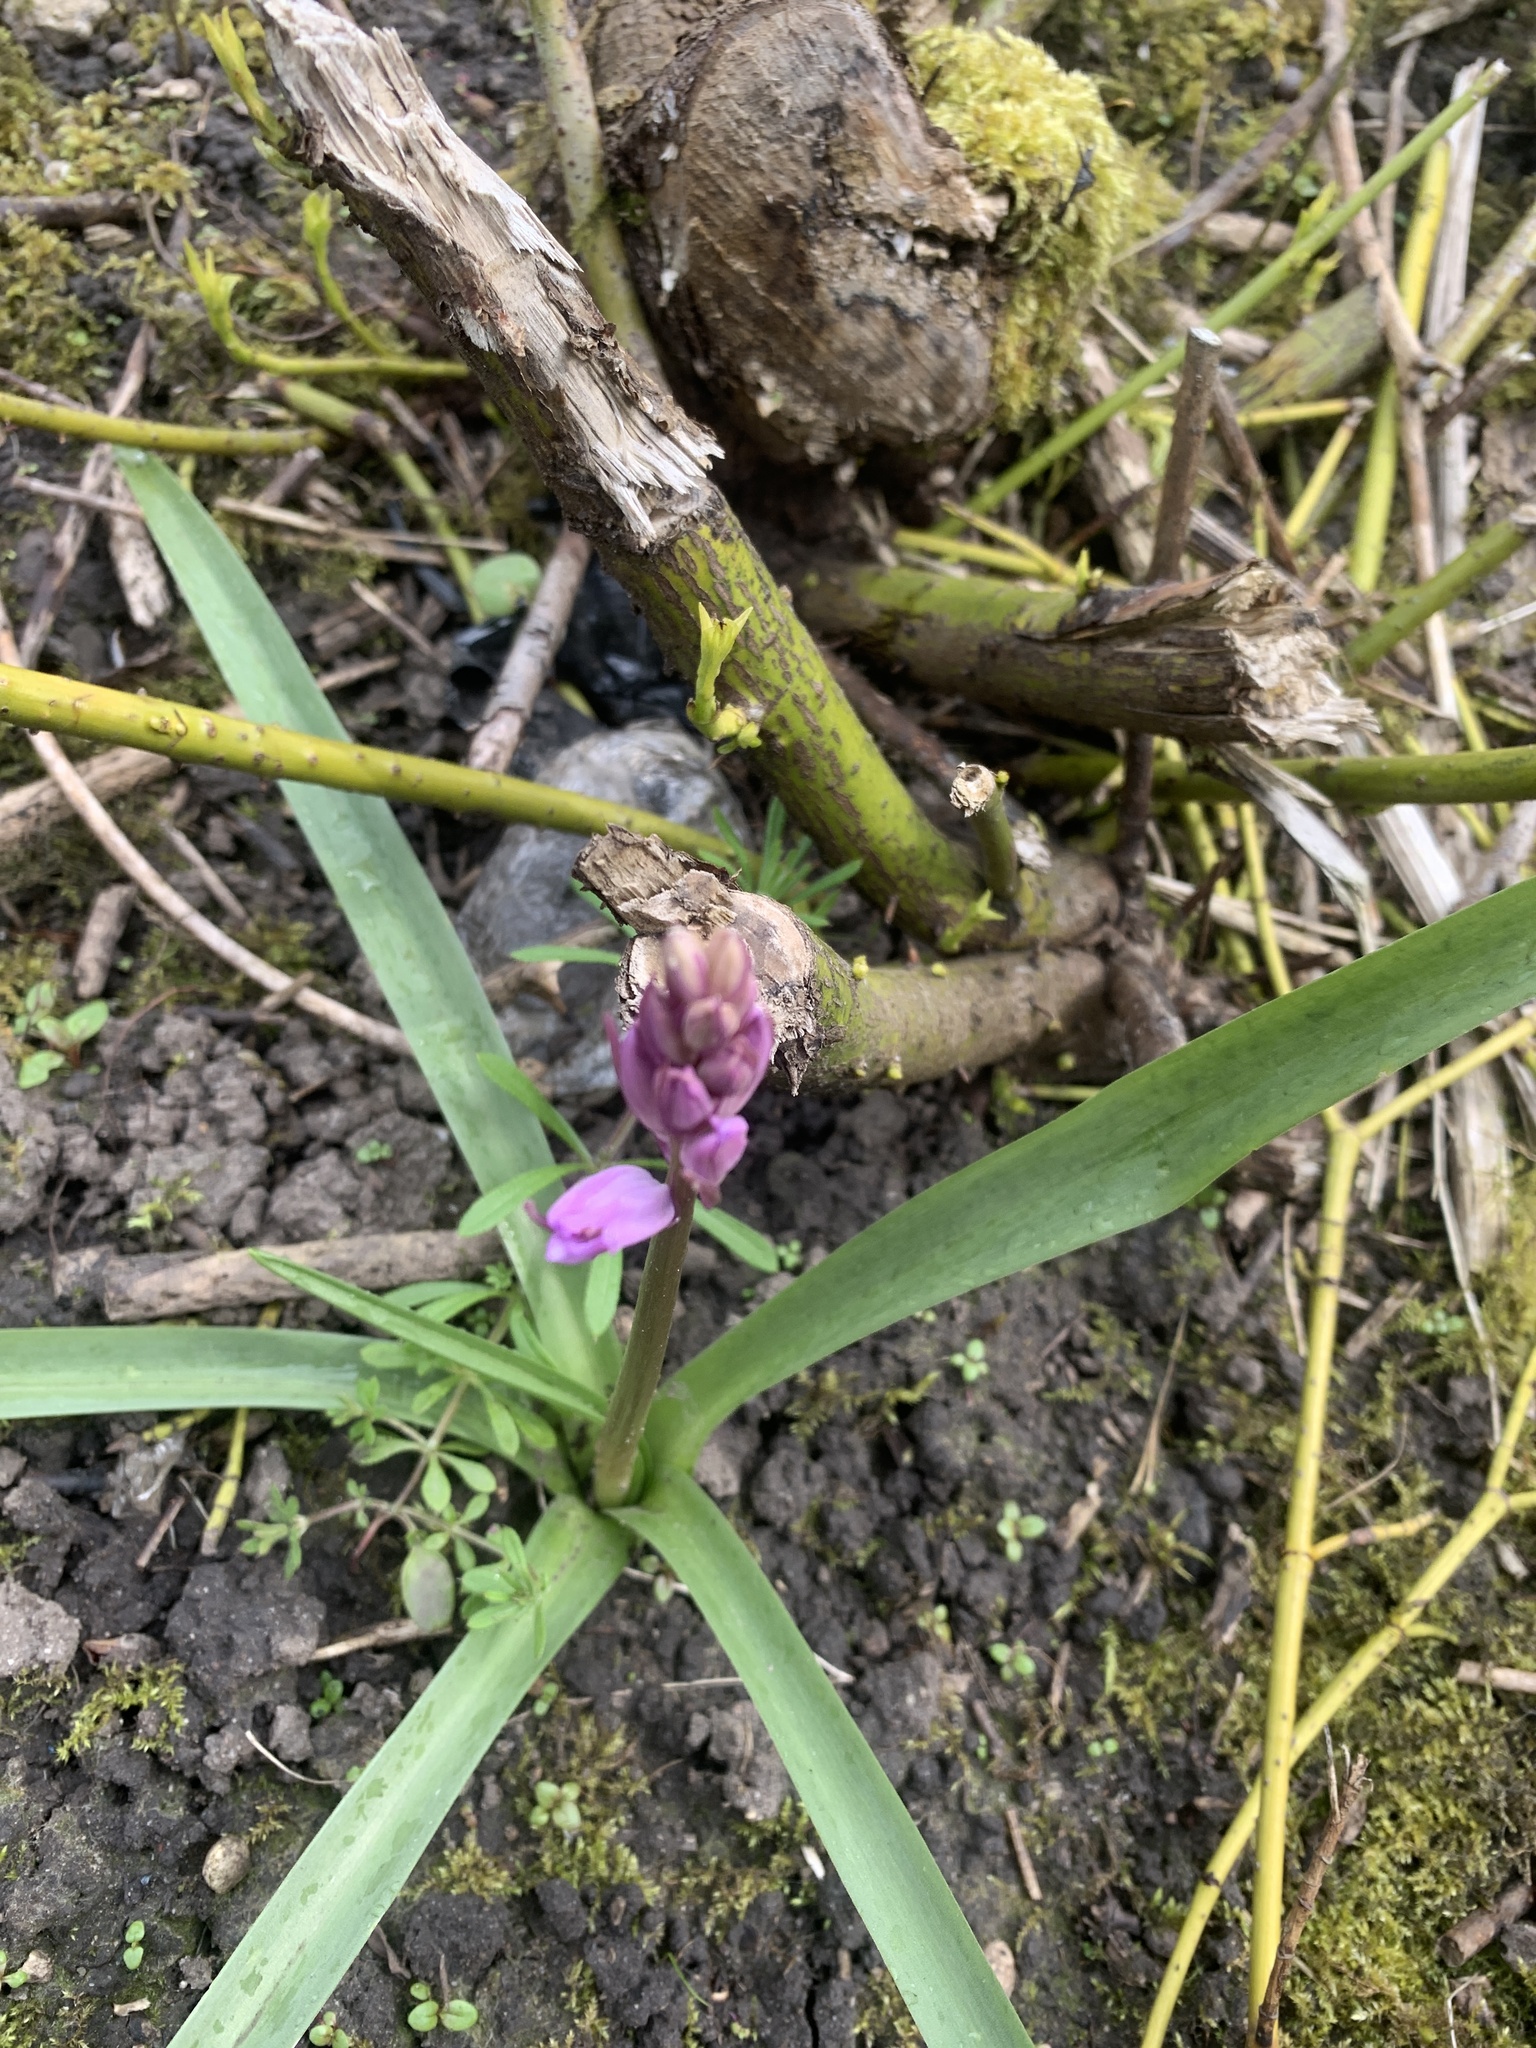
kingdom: Plantae
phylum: Tracheophyta
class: Liliopsida
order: Asparagales
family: Asparagaceae
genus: Hyacinthoides
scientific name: Hyacinthoides non-scripta
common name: Bluebell
